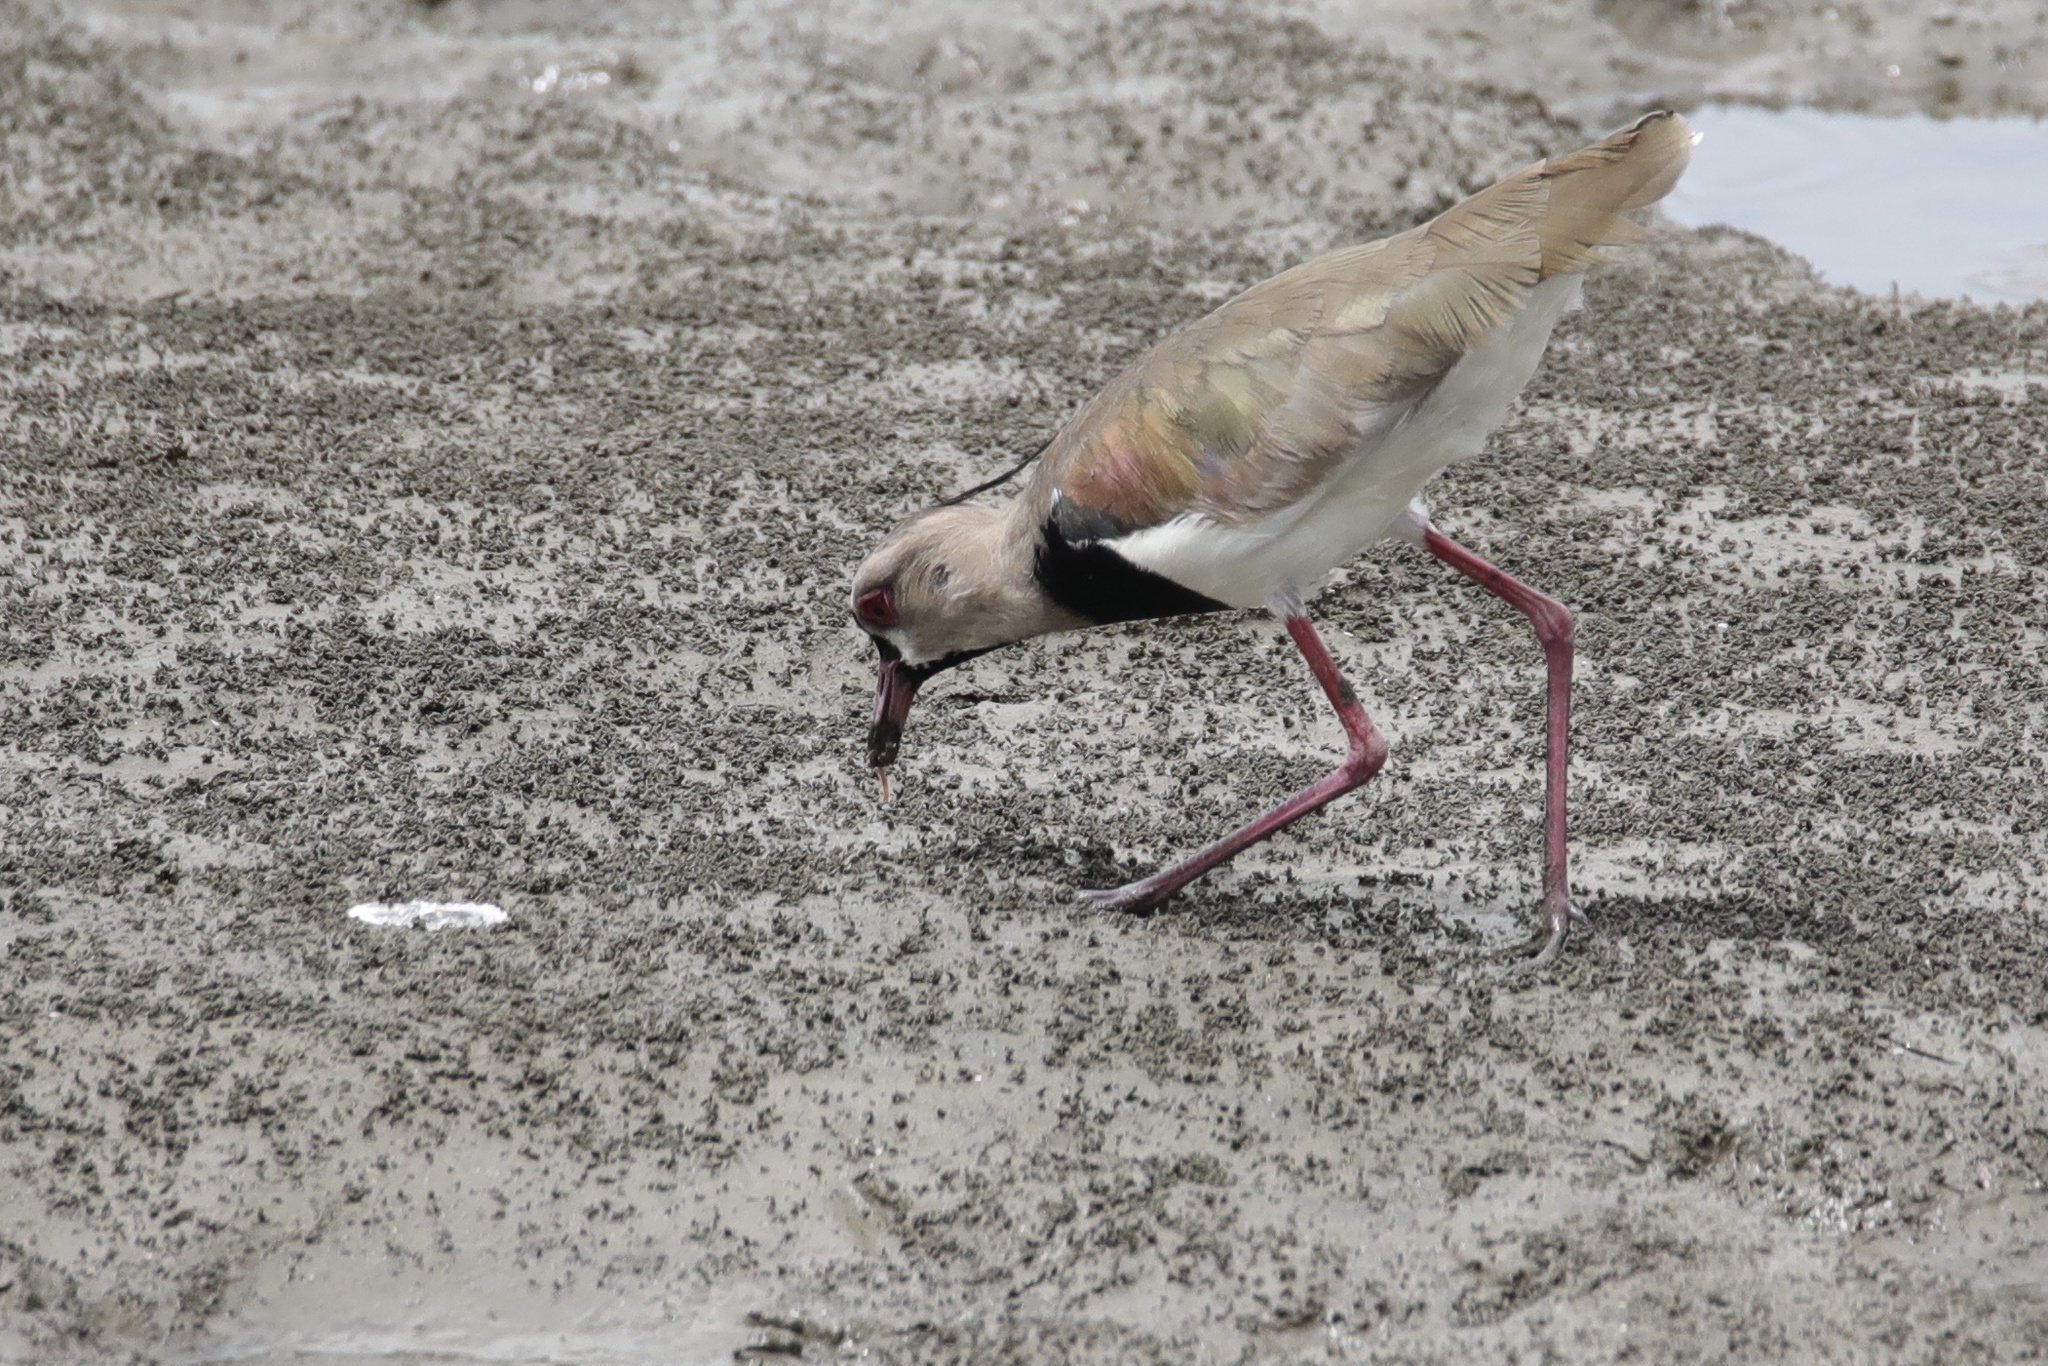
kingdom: Animalia
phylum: Chordata
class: Aves
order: Charadriiformes
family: Charadriidae
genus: Vanellus
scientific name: Vanellus chilensis
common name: Southern lapwing
